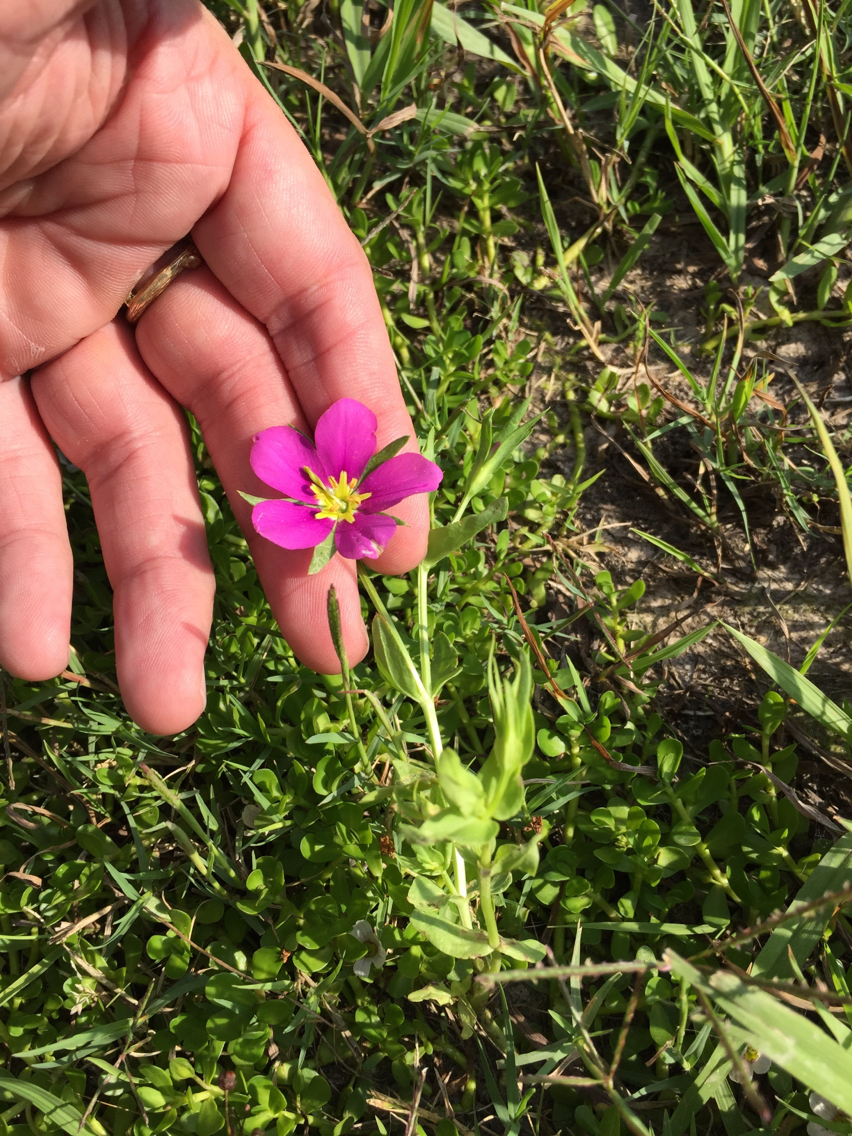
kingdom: Plantae
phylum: Tracheophyta
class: Magnoliopsida
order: Gentianales
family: Gentianaceae
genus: Sabatia
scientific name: Sabatia campestris
